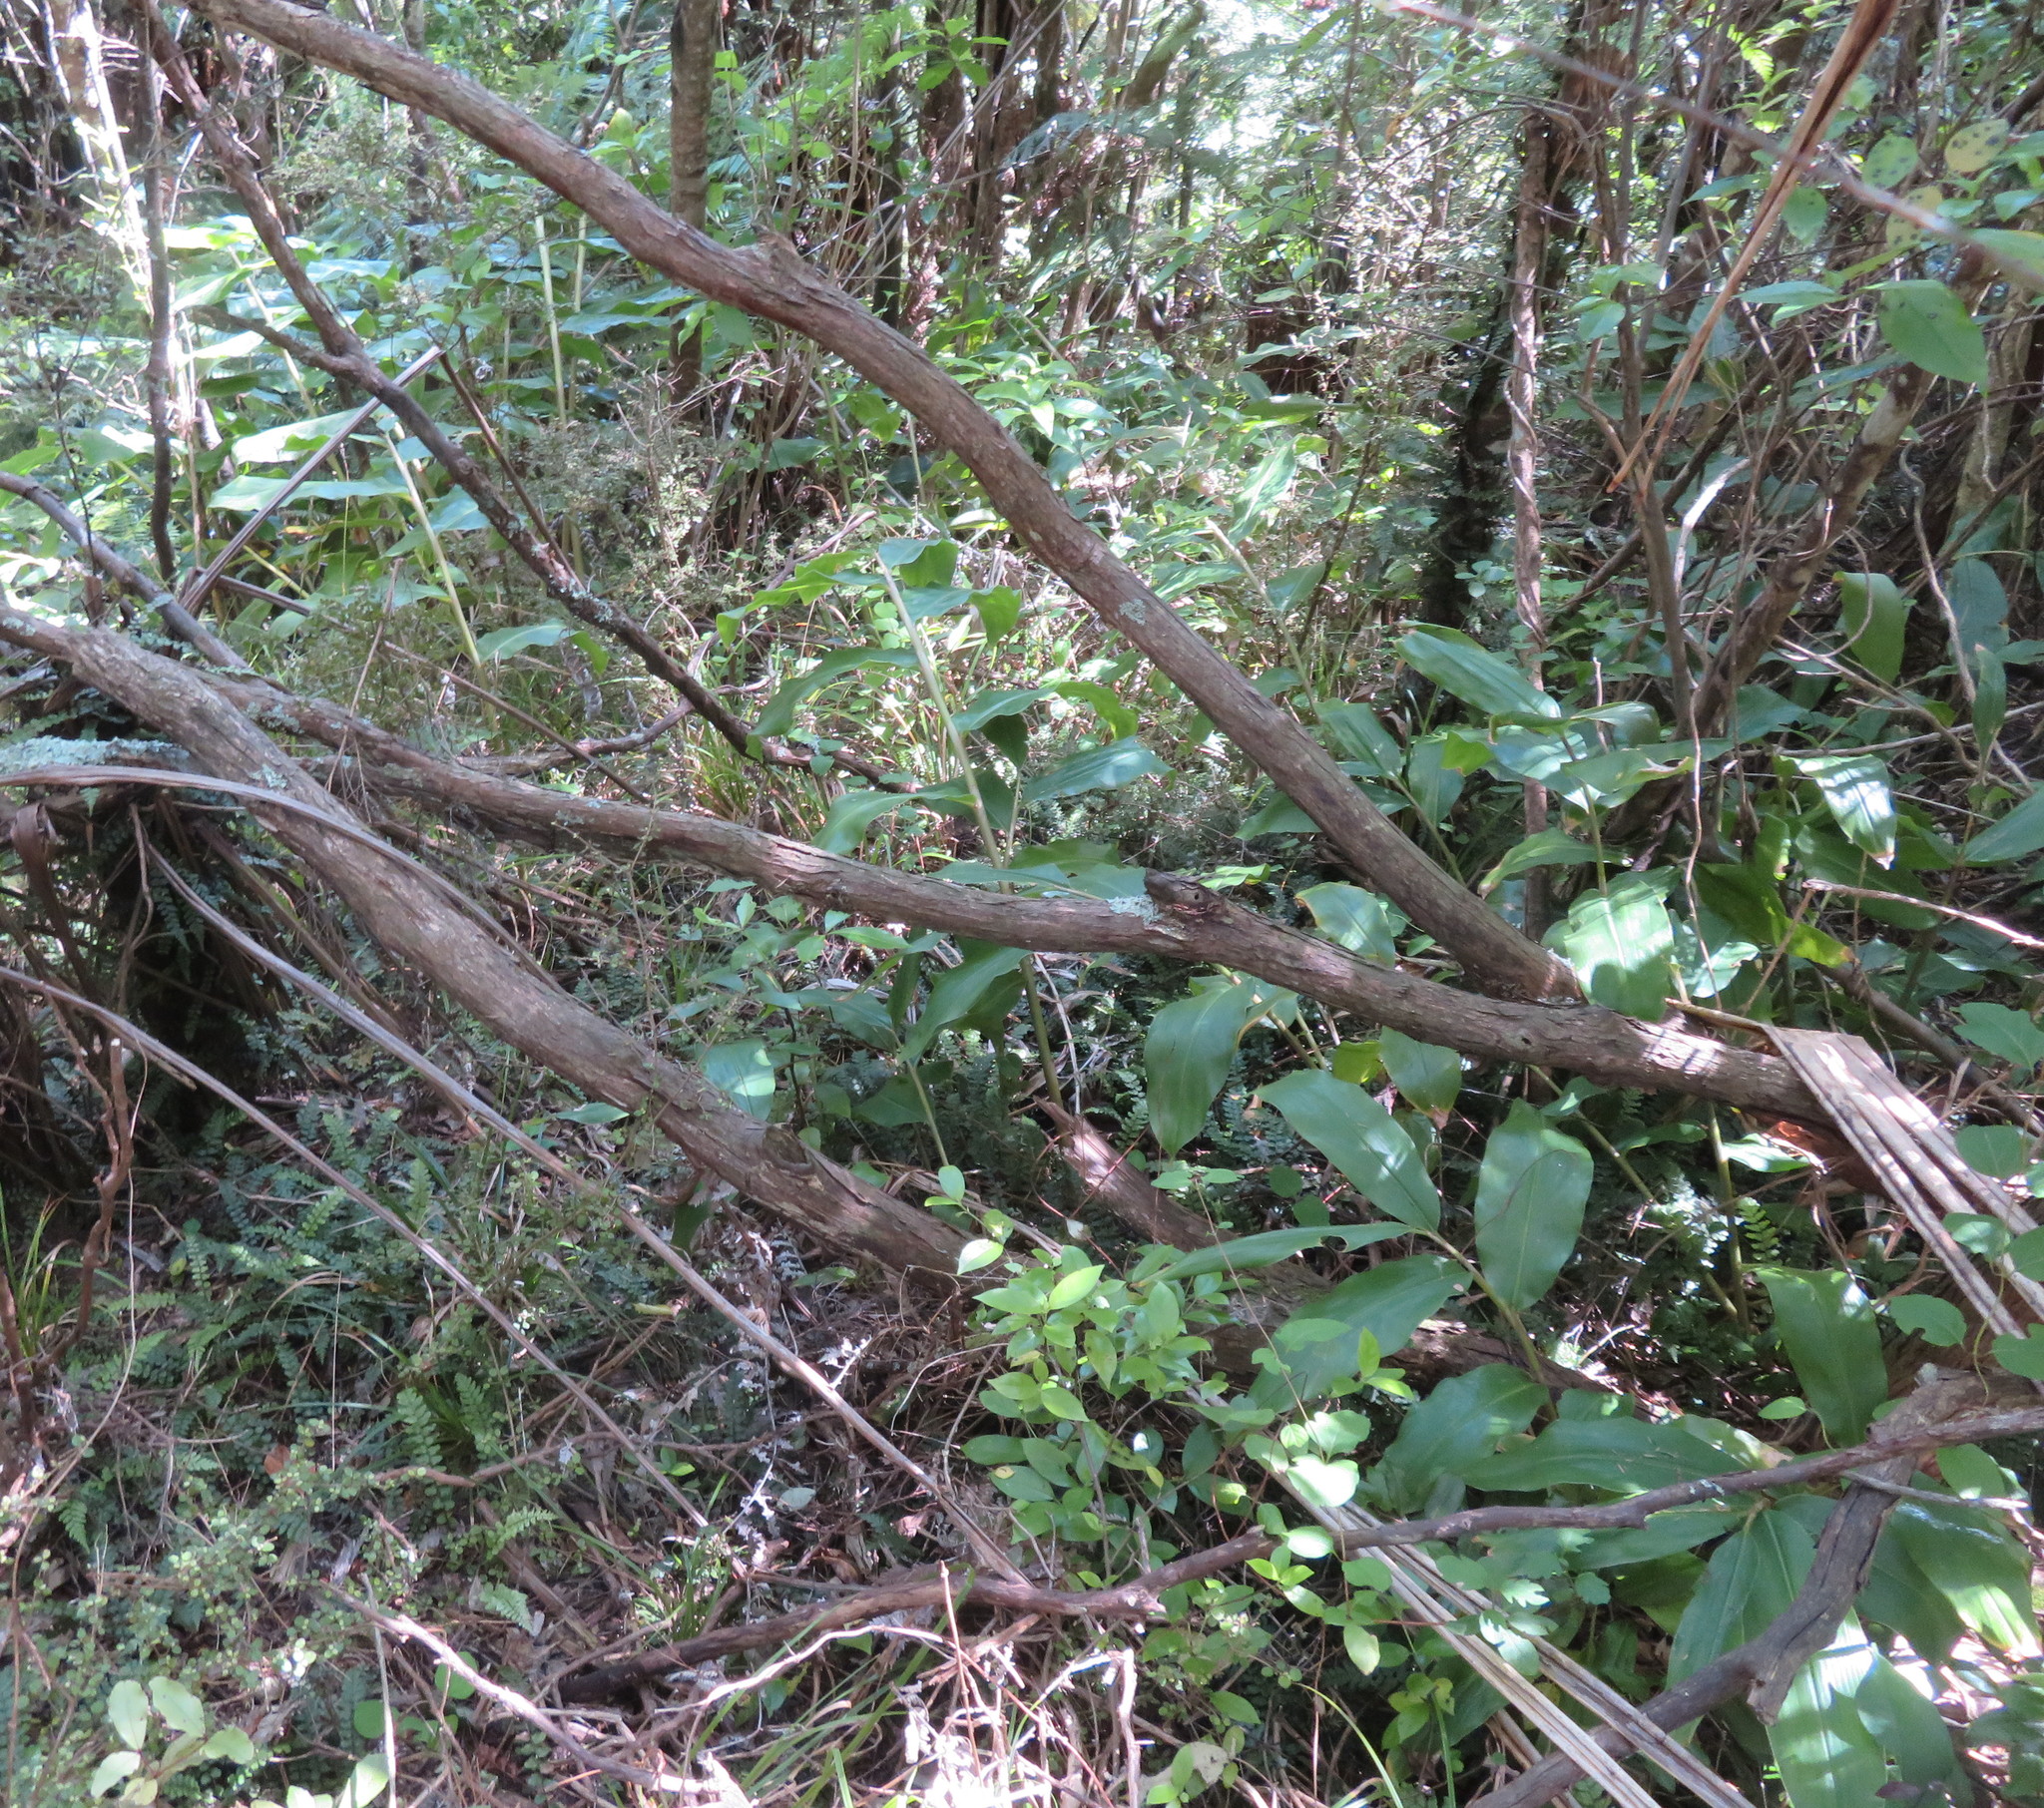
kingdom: Plantae
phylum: Tracheophyta
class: Magnoliopsida
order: Gentianales
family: Loganiaceae
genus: Geniostoma
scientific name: Geniostoma ligustrifolium
